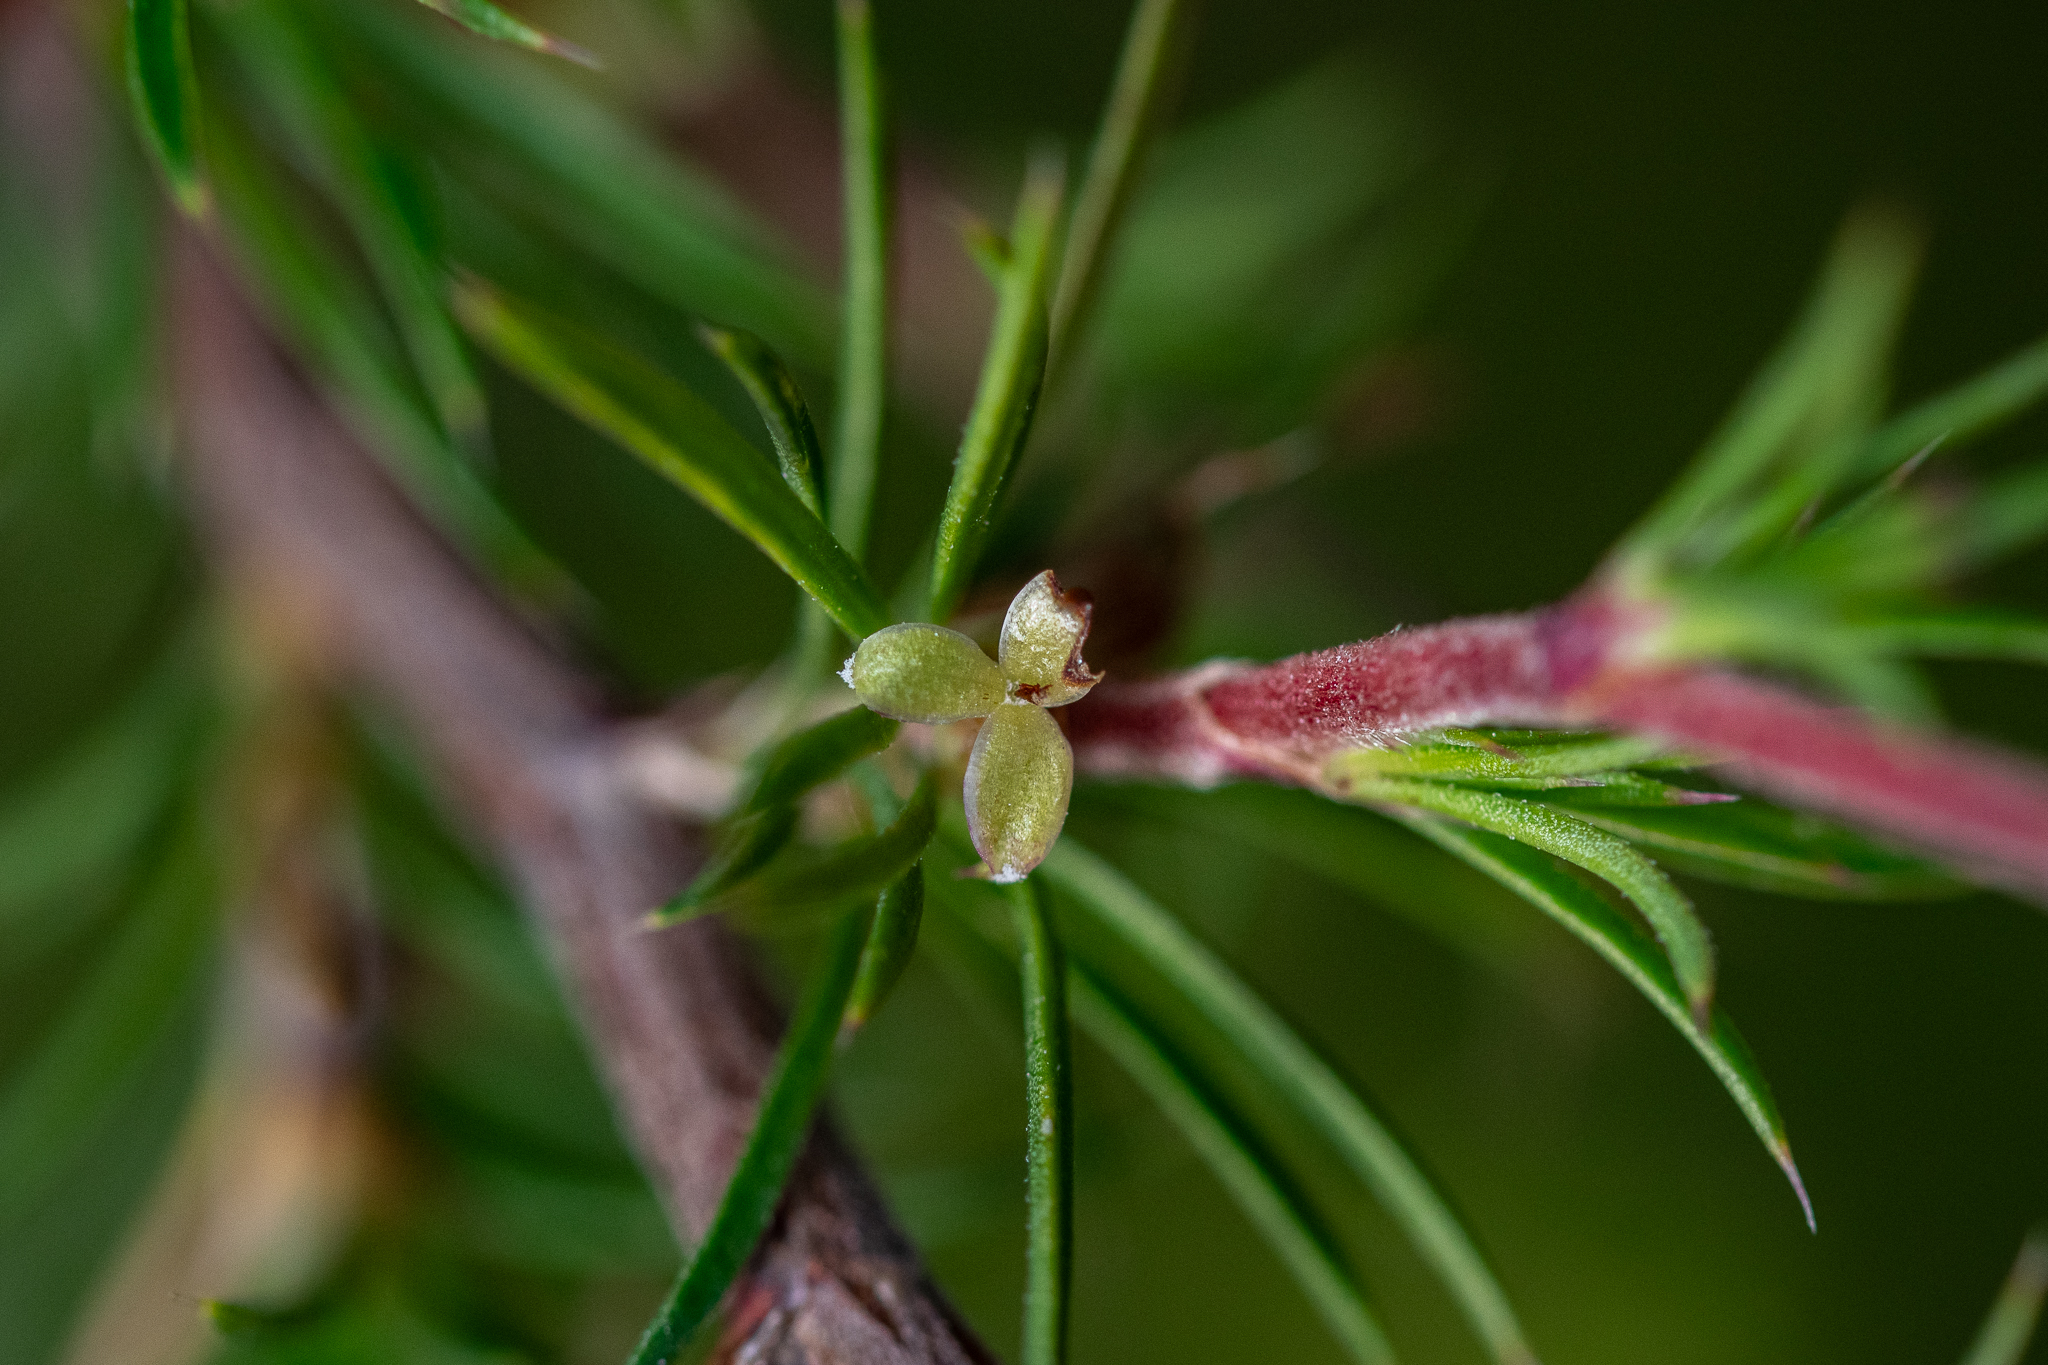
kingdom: Plantae
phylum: Tracheophyta
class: Magnoliopsida
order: Rosales
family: Rosaceae
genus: Cliffortia
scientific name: Cliffortia atrata
